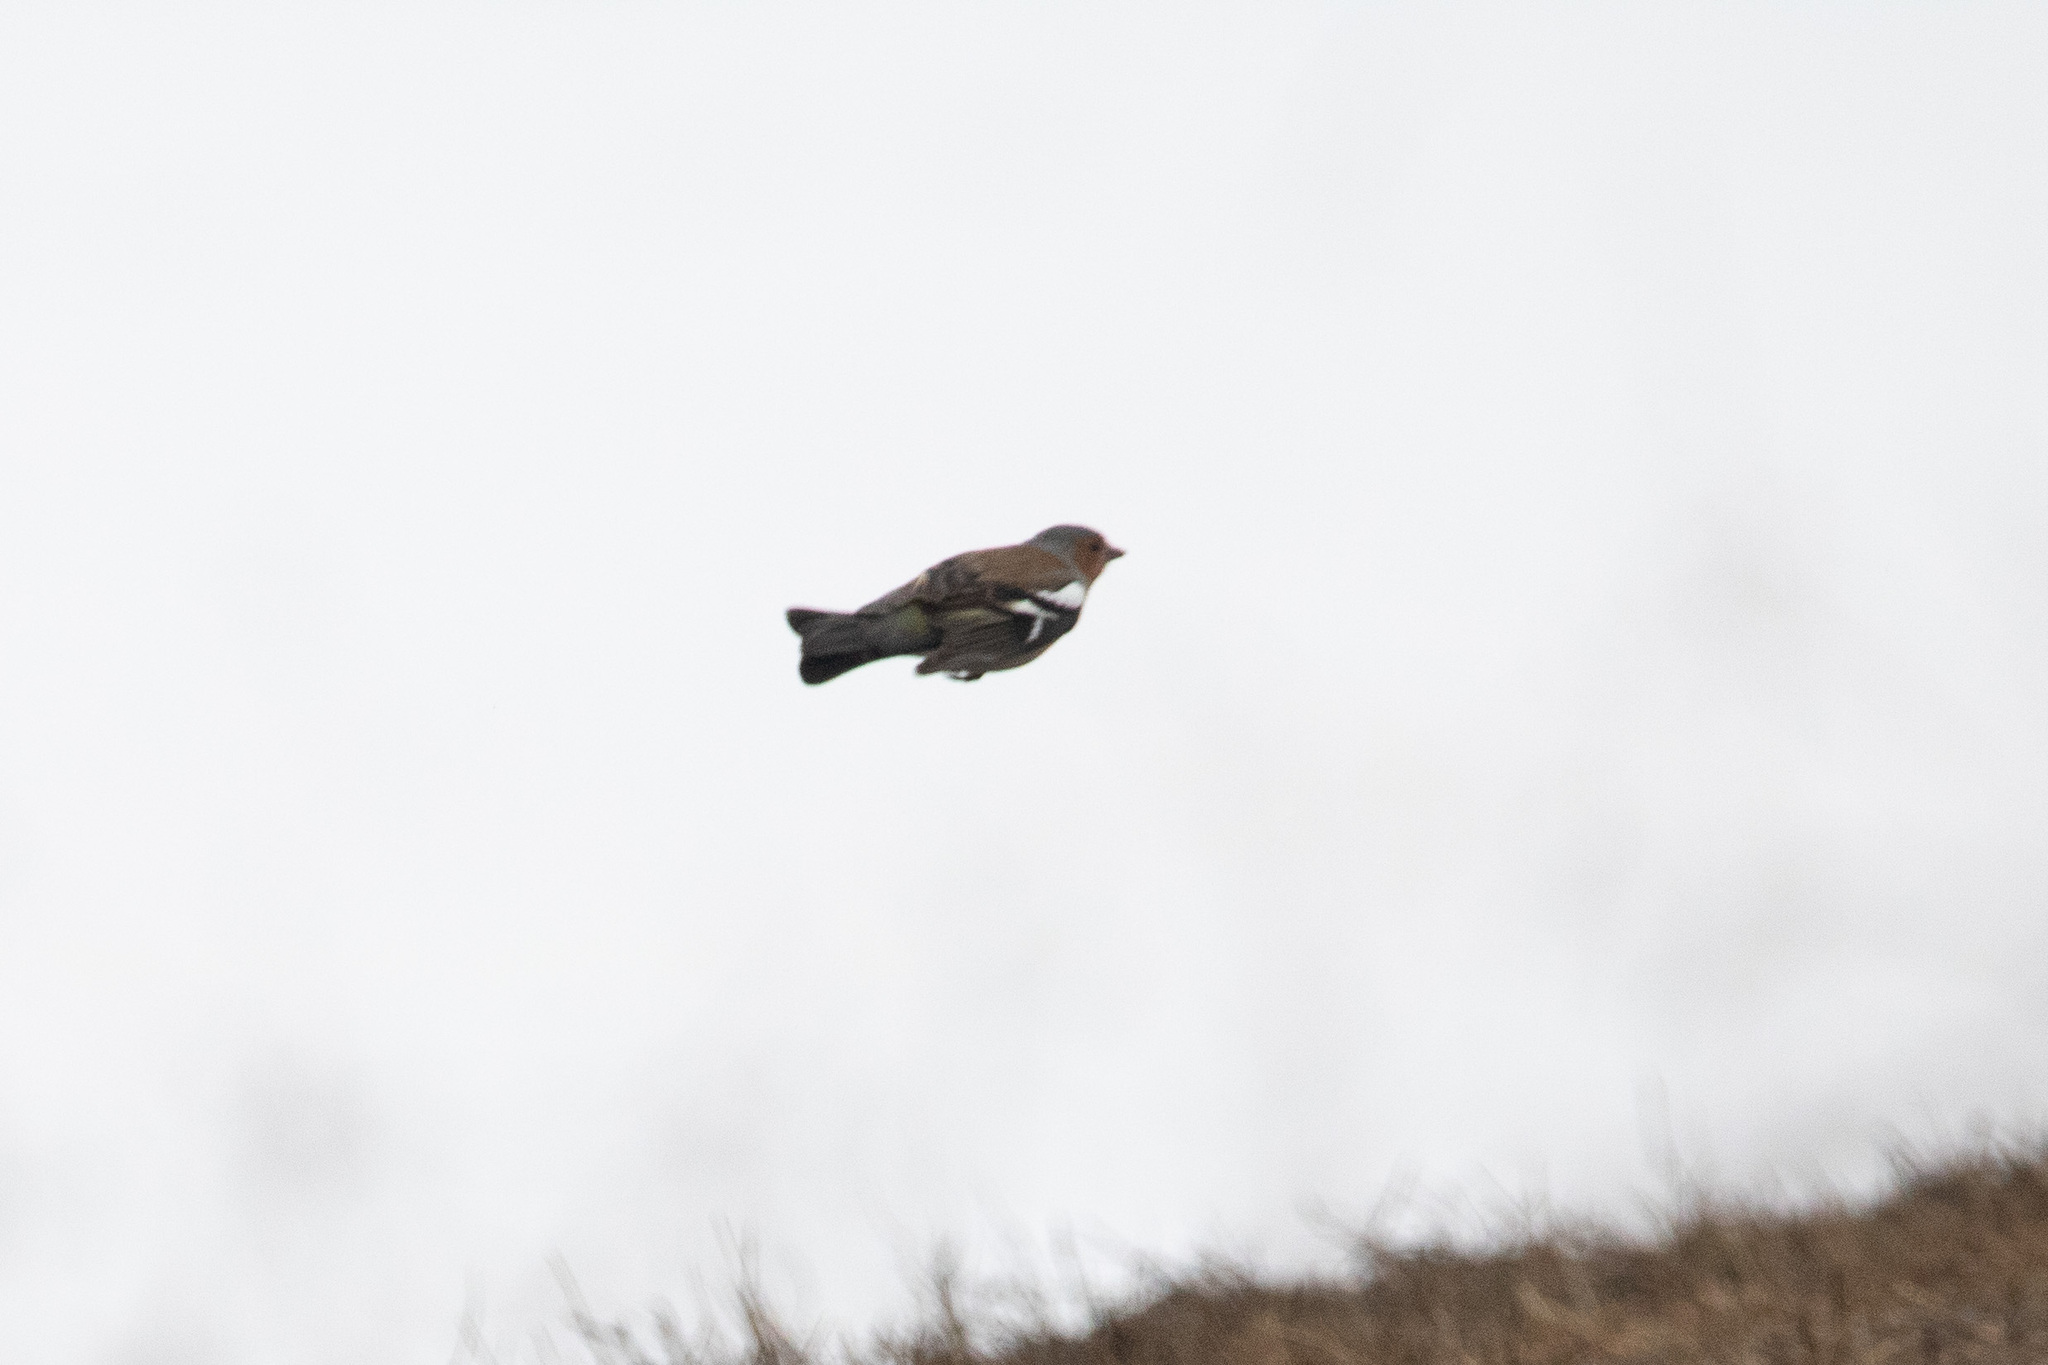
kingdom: Animalia
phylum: Chordata
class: Aves
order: Passeriformes
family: Fringillidae
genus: Fringilla
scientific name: Fringilla coelebs
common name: Common chaffinch
